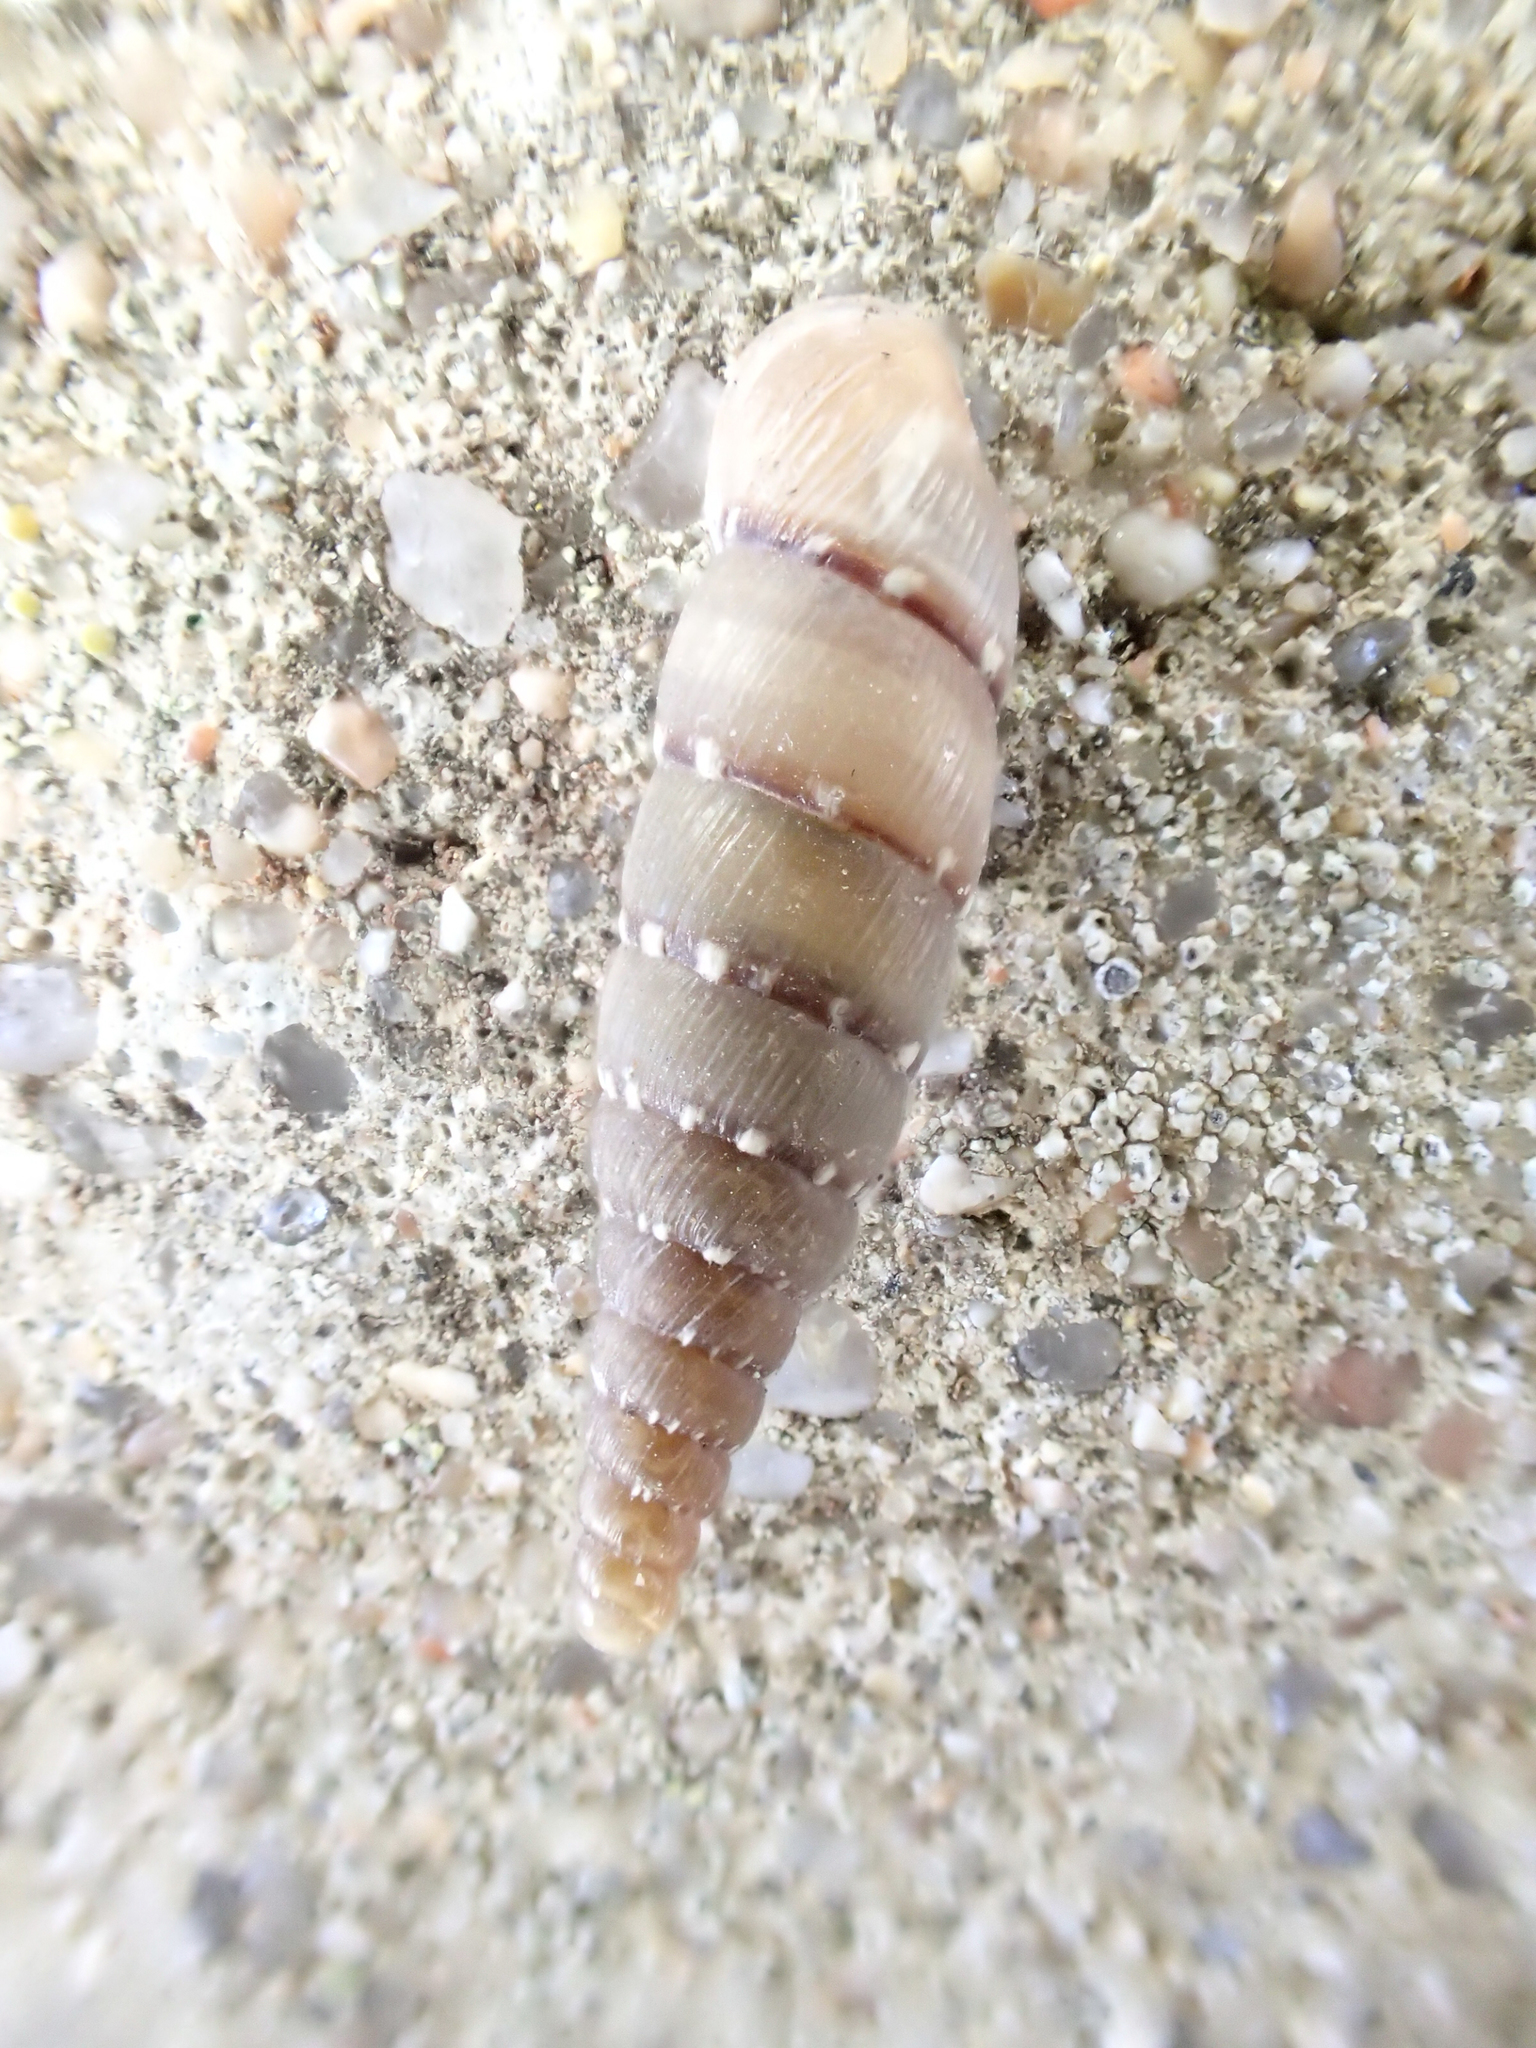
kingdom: Animalia
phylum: Mollusca
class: Gastropoda
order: Stylommatophora
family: Clausiliidae
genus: Papillifera
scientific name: Papillifera papillaris
